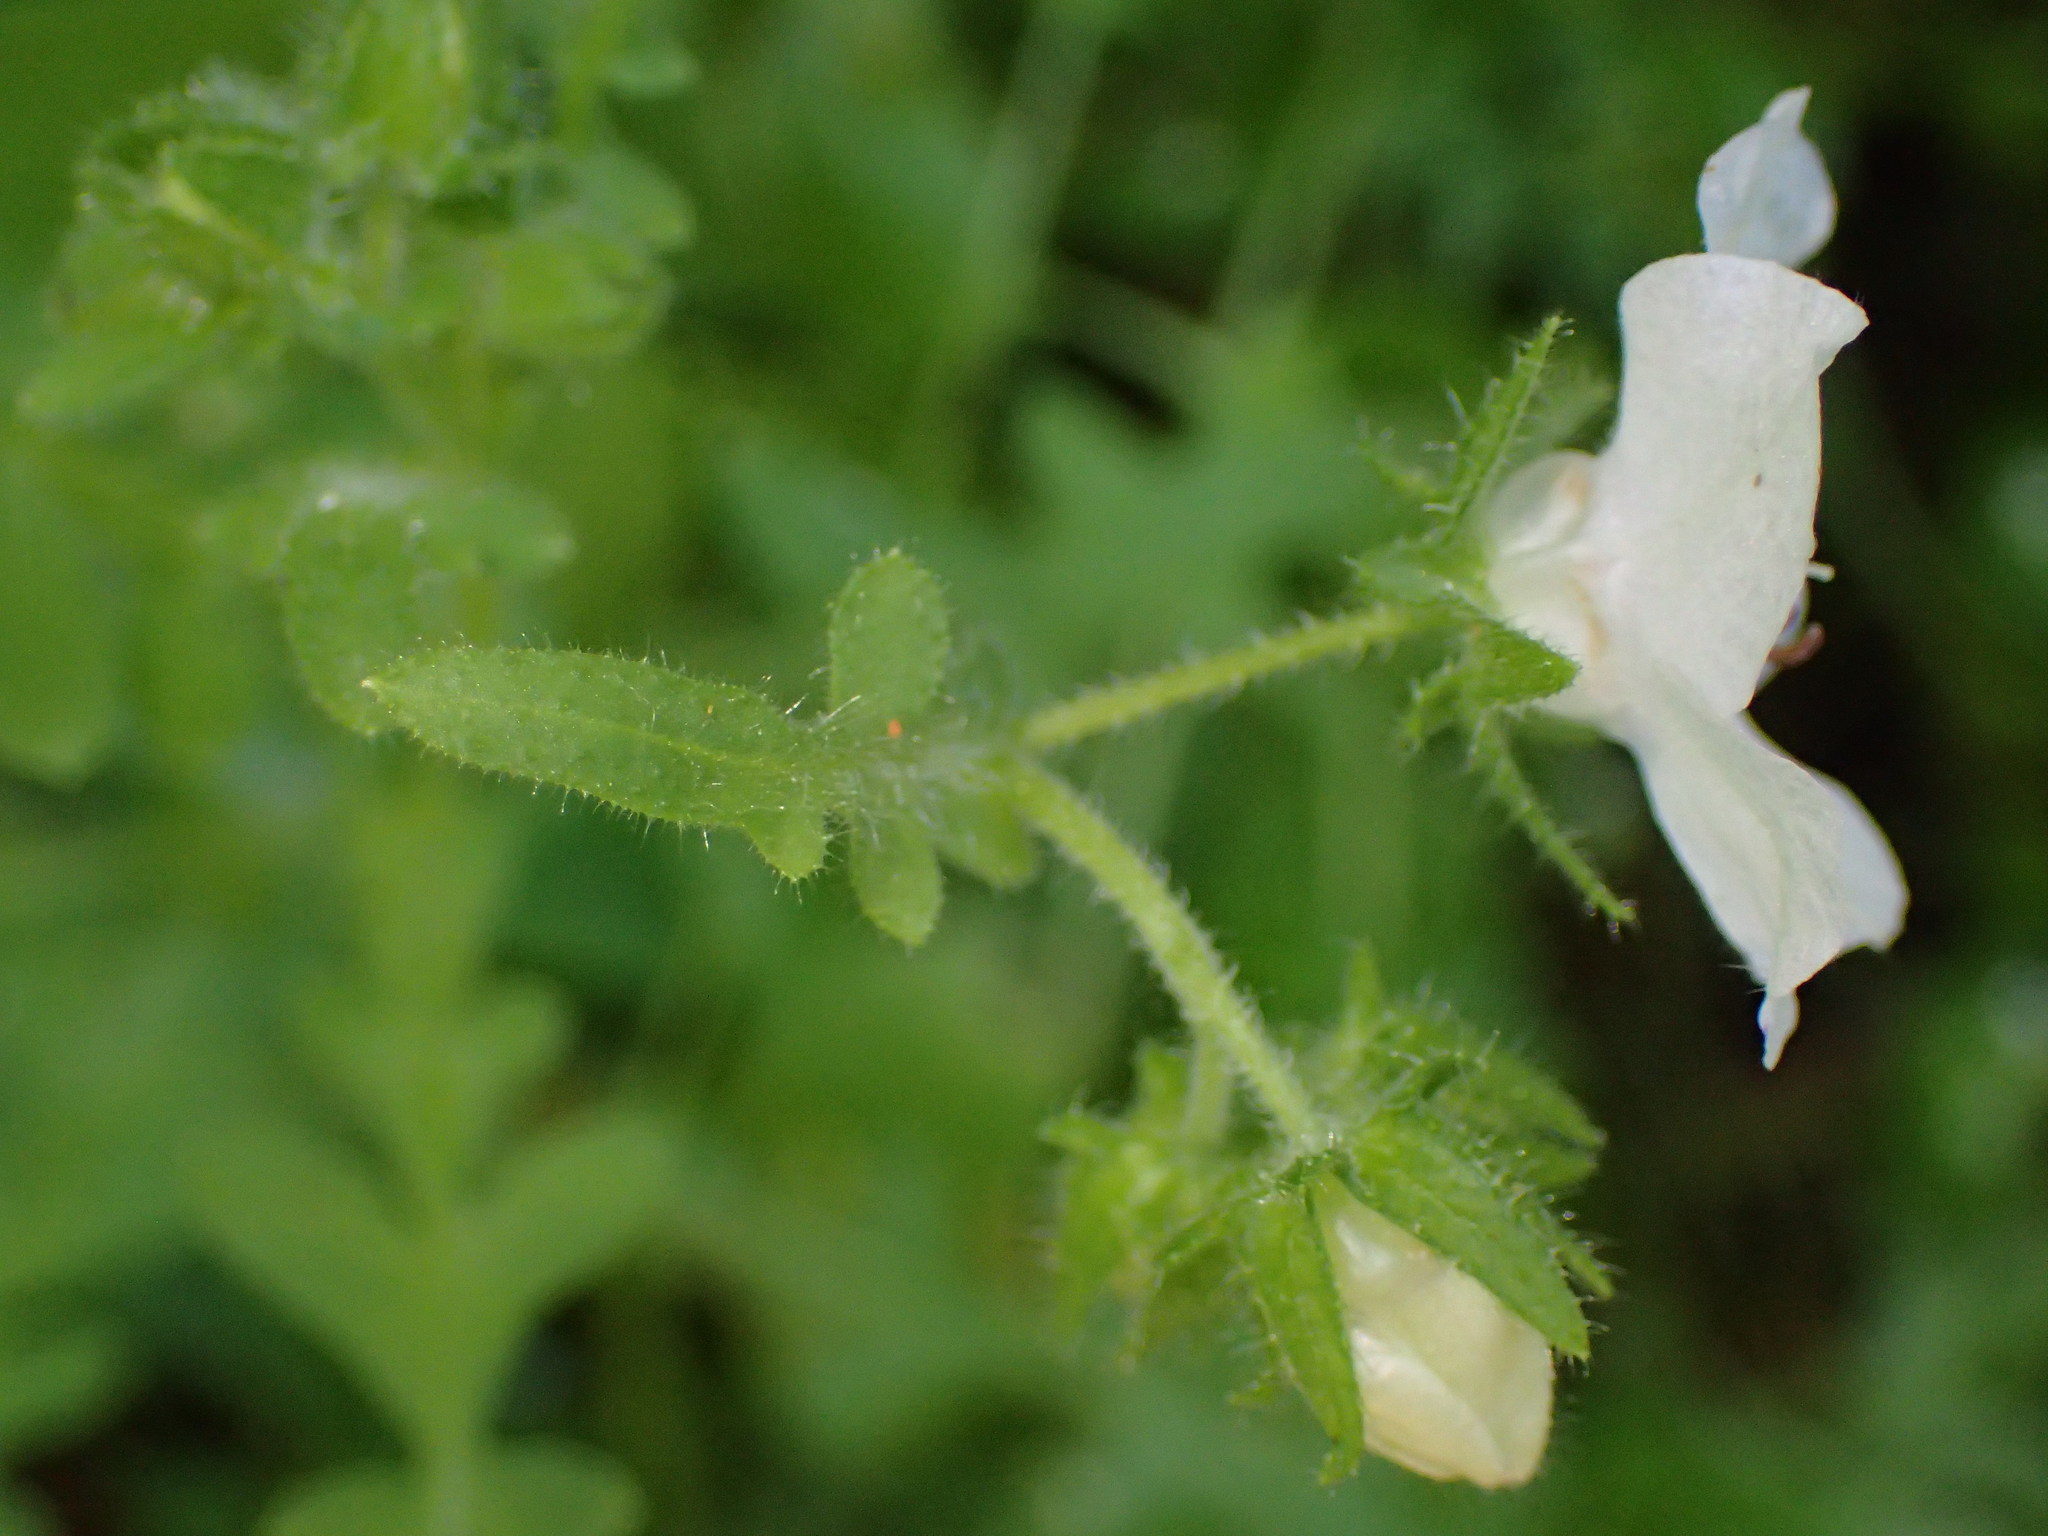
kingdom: Plantae
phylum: Tracheophyta
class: Magnoliopsida
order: Boraginales
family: Hydrophyllaceae
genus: Pholistoma
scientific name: Pholistoma auritum
